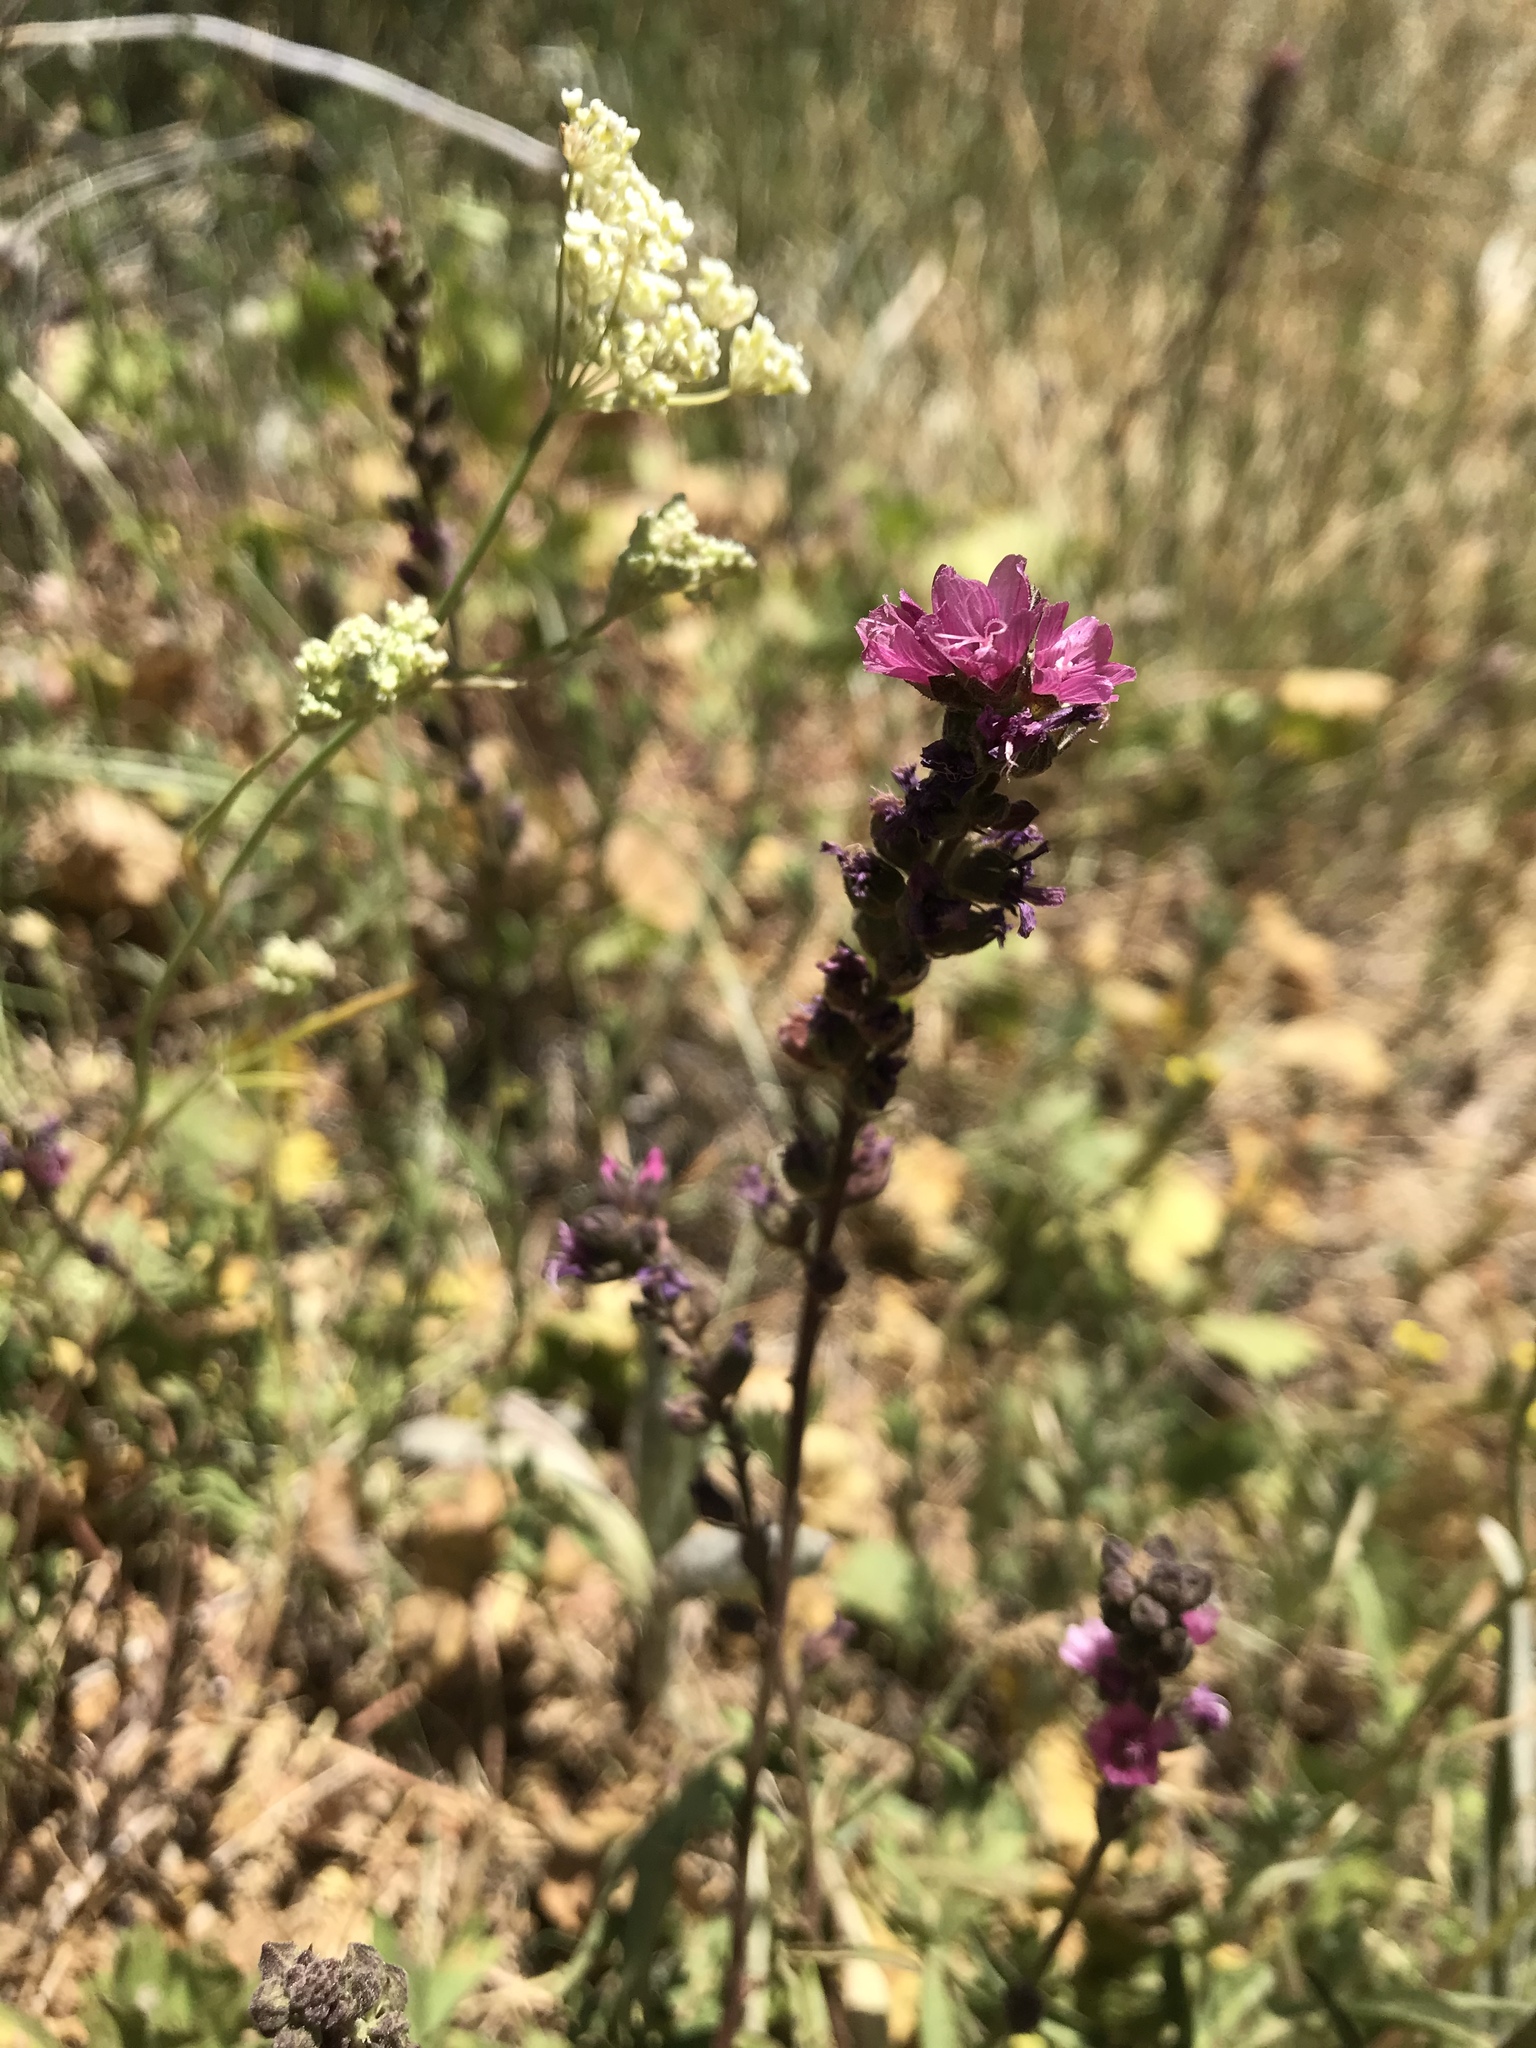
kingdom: Plantae
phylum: Tracheophyta
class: Magnoliopsida
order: Malvales
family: Malvaceae
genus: Sidalcea
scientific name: Sidalcea oregana
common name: Oregon checker-mallow
